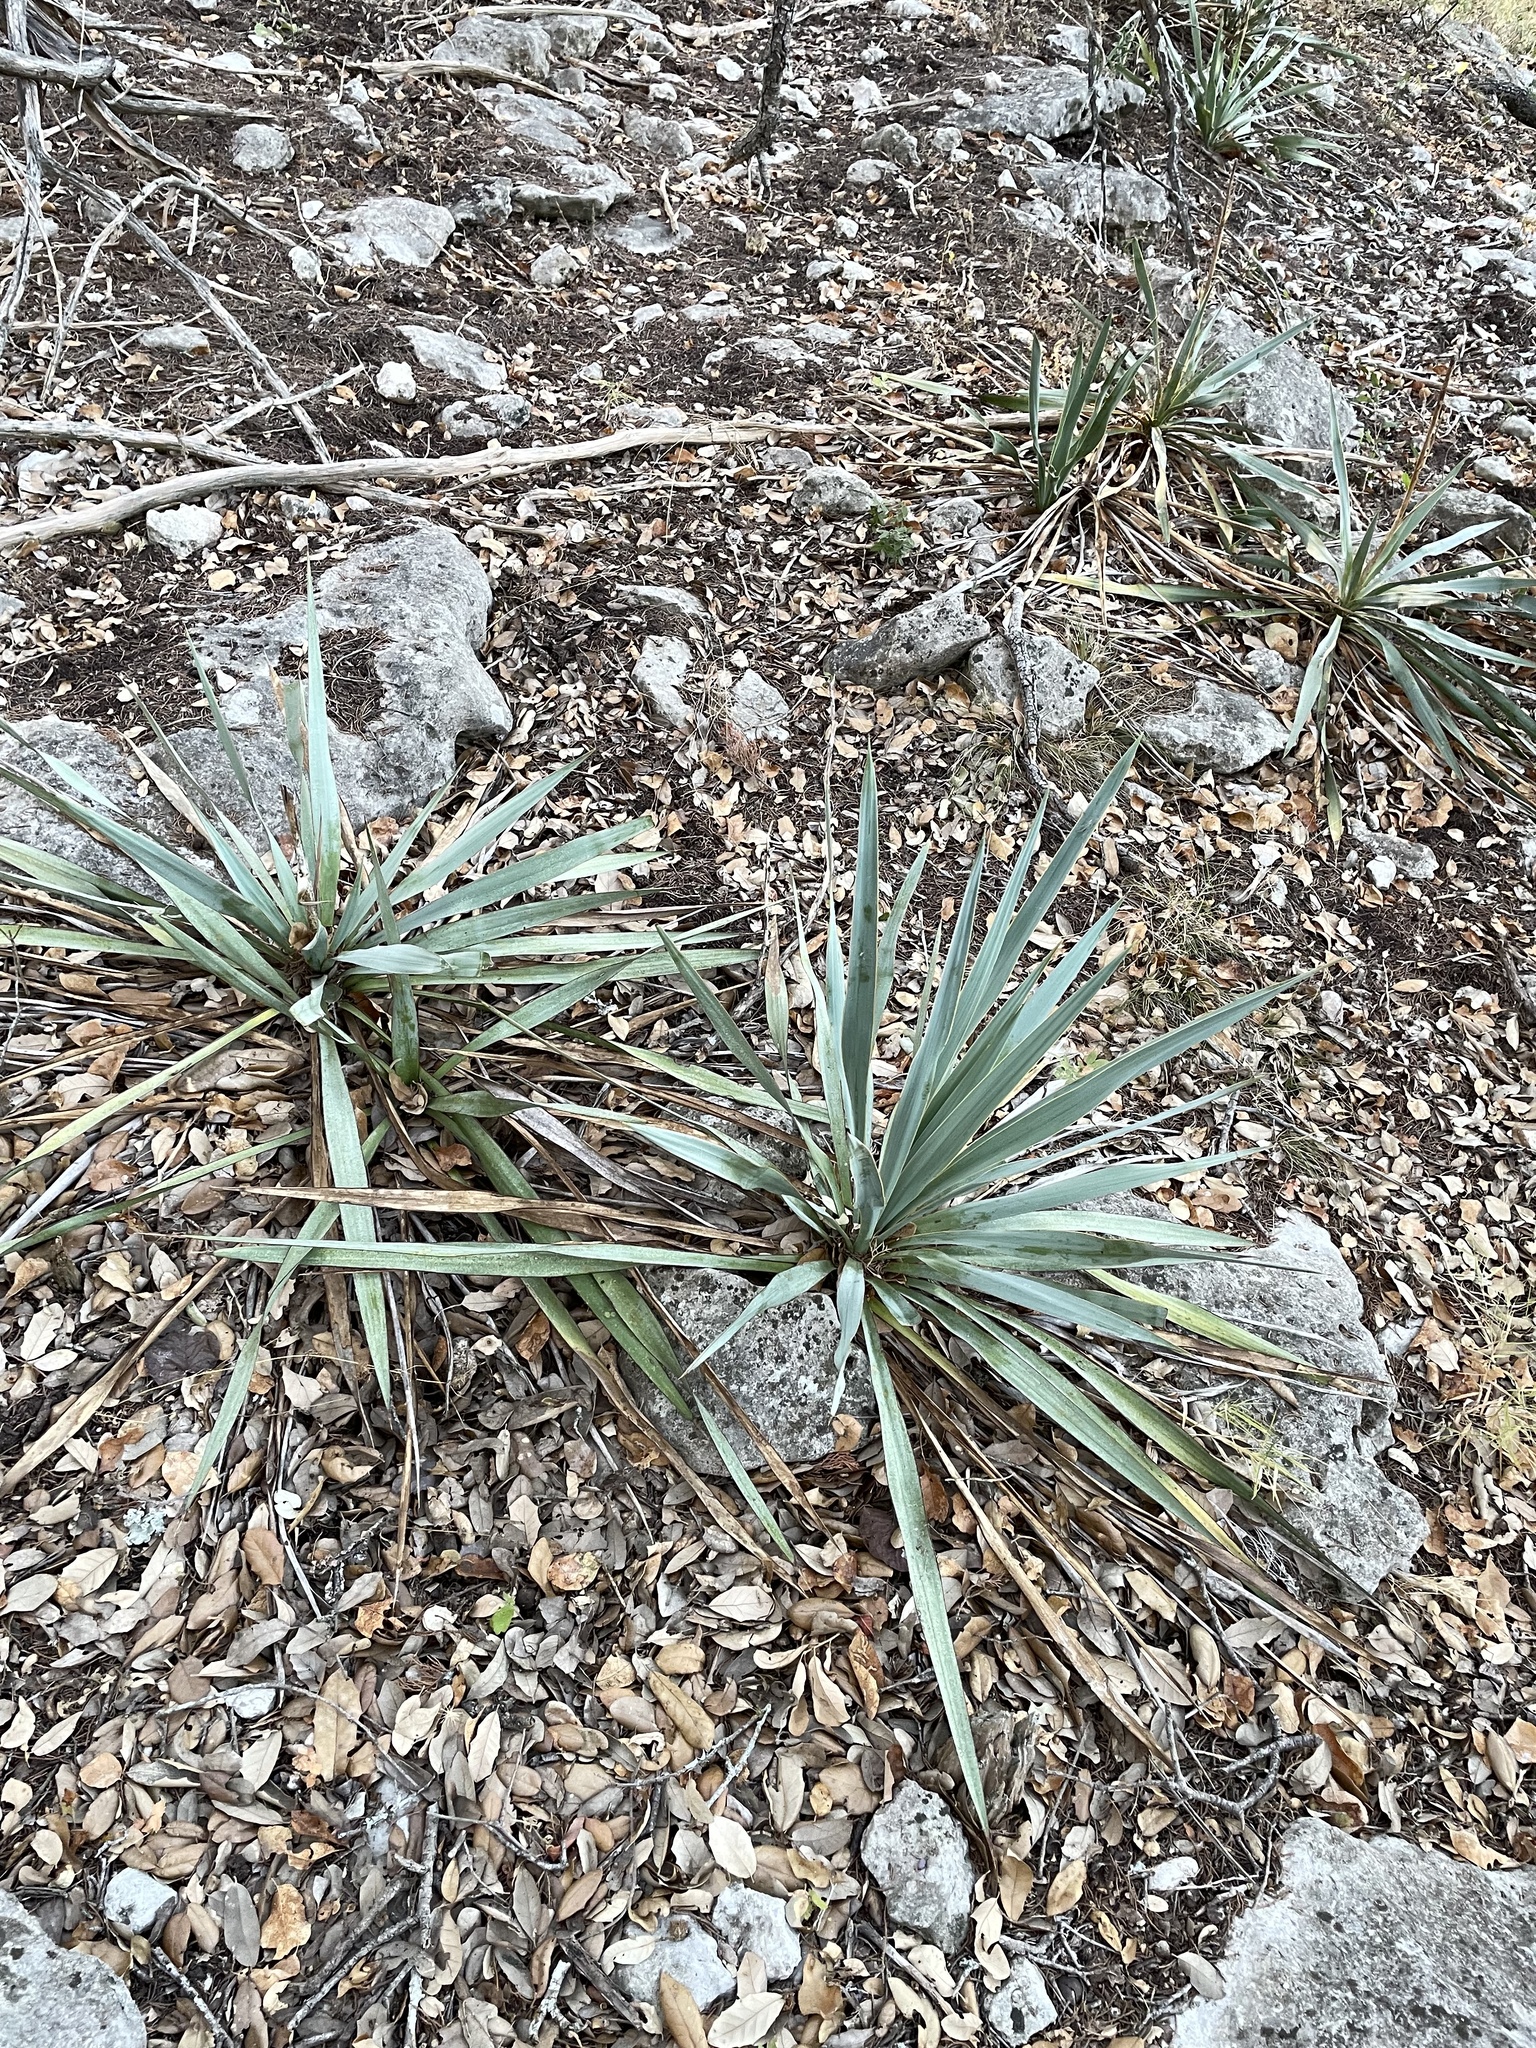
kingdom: Plantae
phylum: Tracheophyta
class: Liliopsida
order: Asparagales
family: Asparagaceae
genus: Yucca
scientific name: Yucca pallida
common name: Pale leaf yucca
